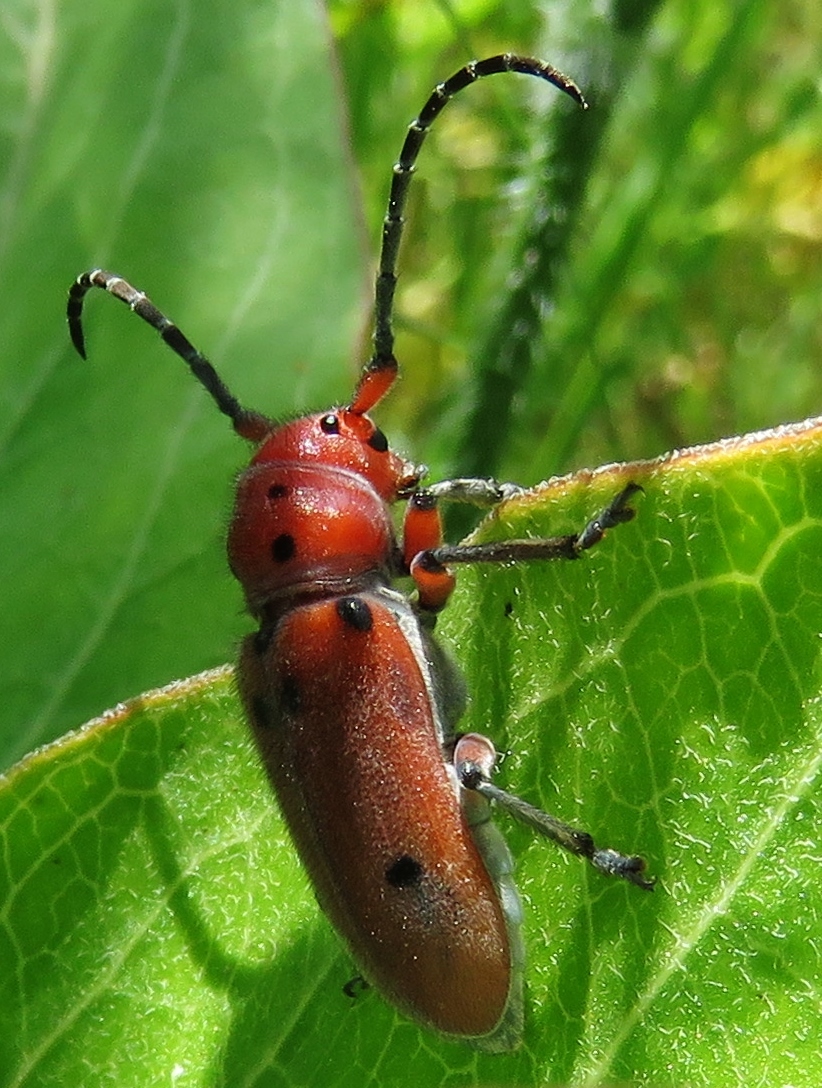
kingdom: Animalia
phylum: Arthropoda
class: Insecta
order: Coleoptera
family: Cerambycidae
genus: Tetraopes
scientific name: Tetraopes texanus
